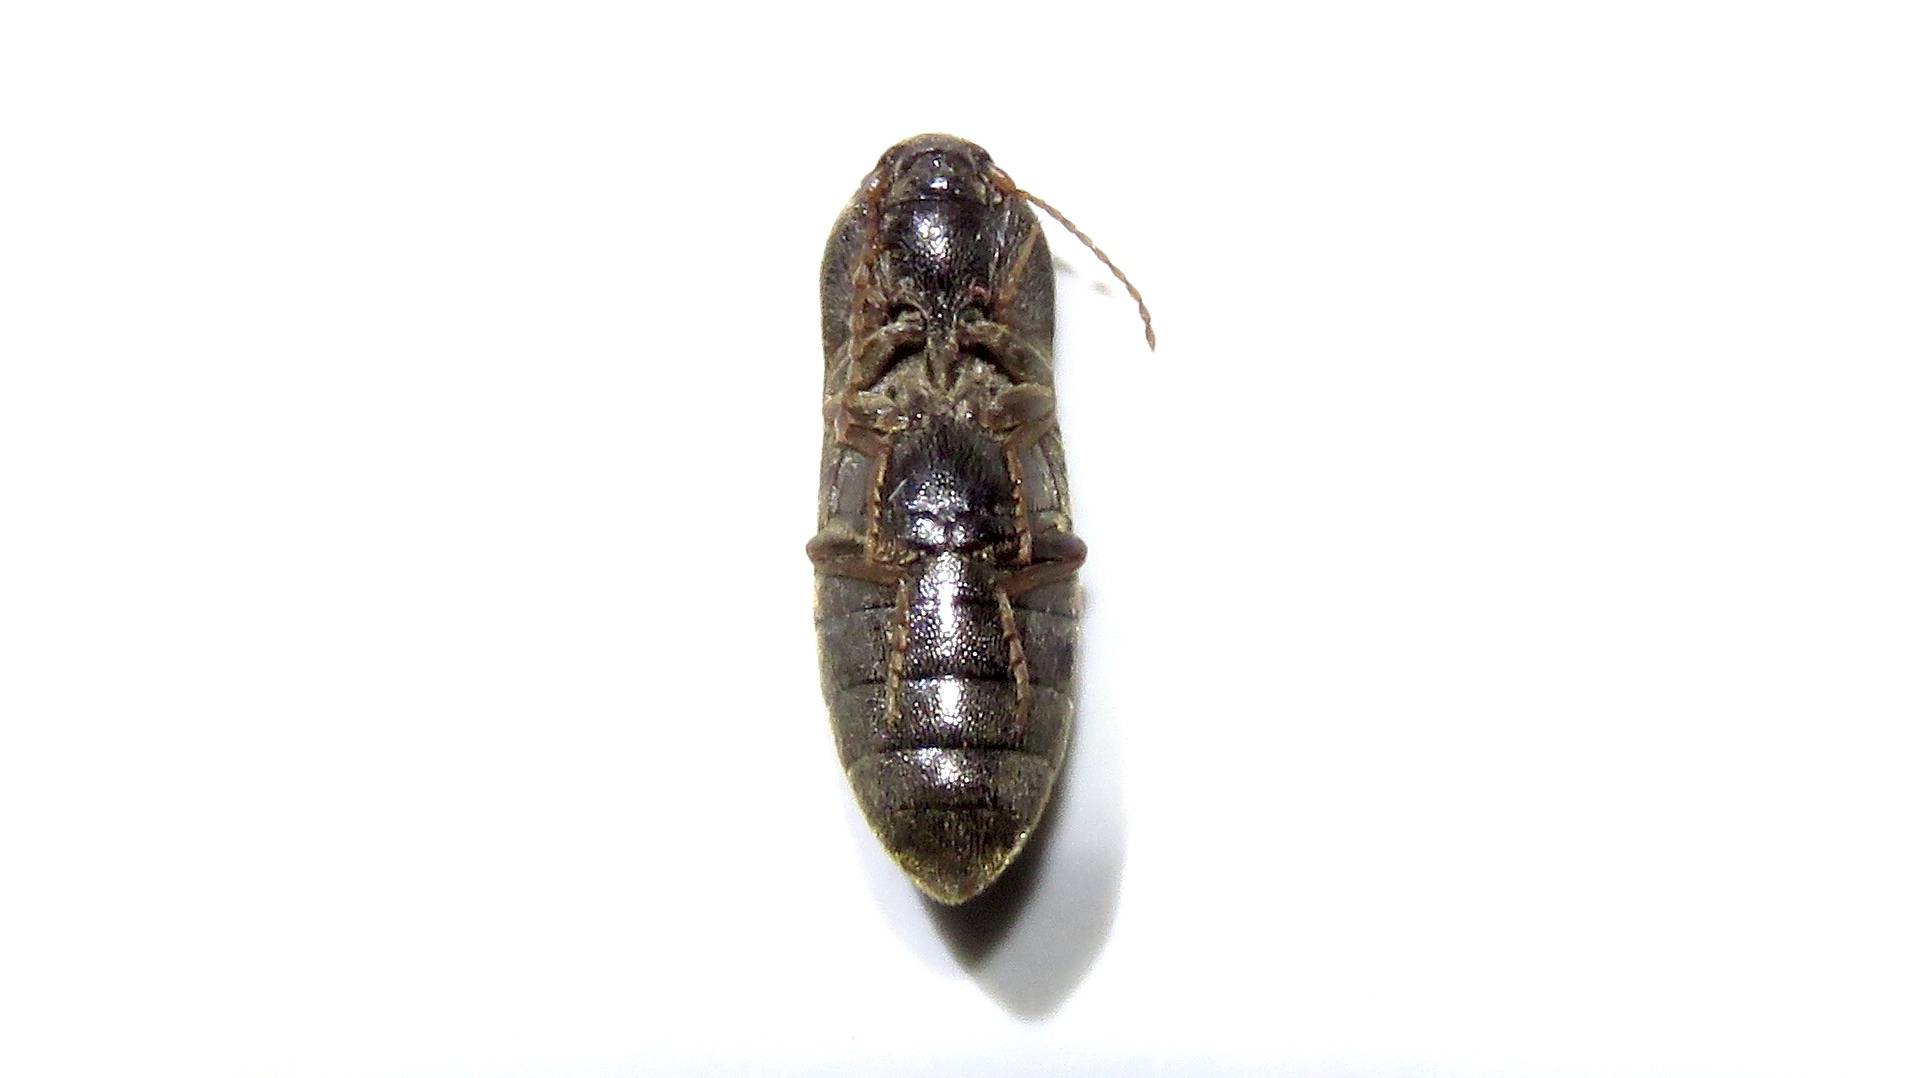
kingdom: Animalia
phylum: Arthropoda
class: Insecta
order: Coleoptera
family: Elateridae
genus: Agriotes
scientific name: Agriotes mancus
